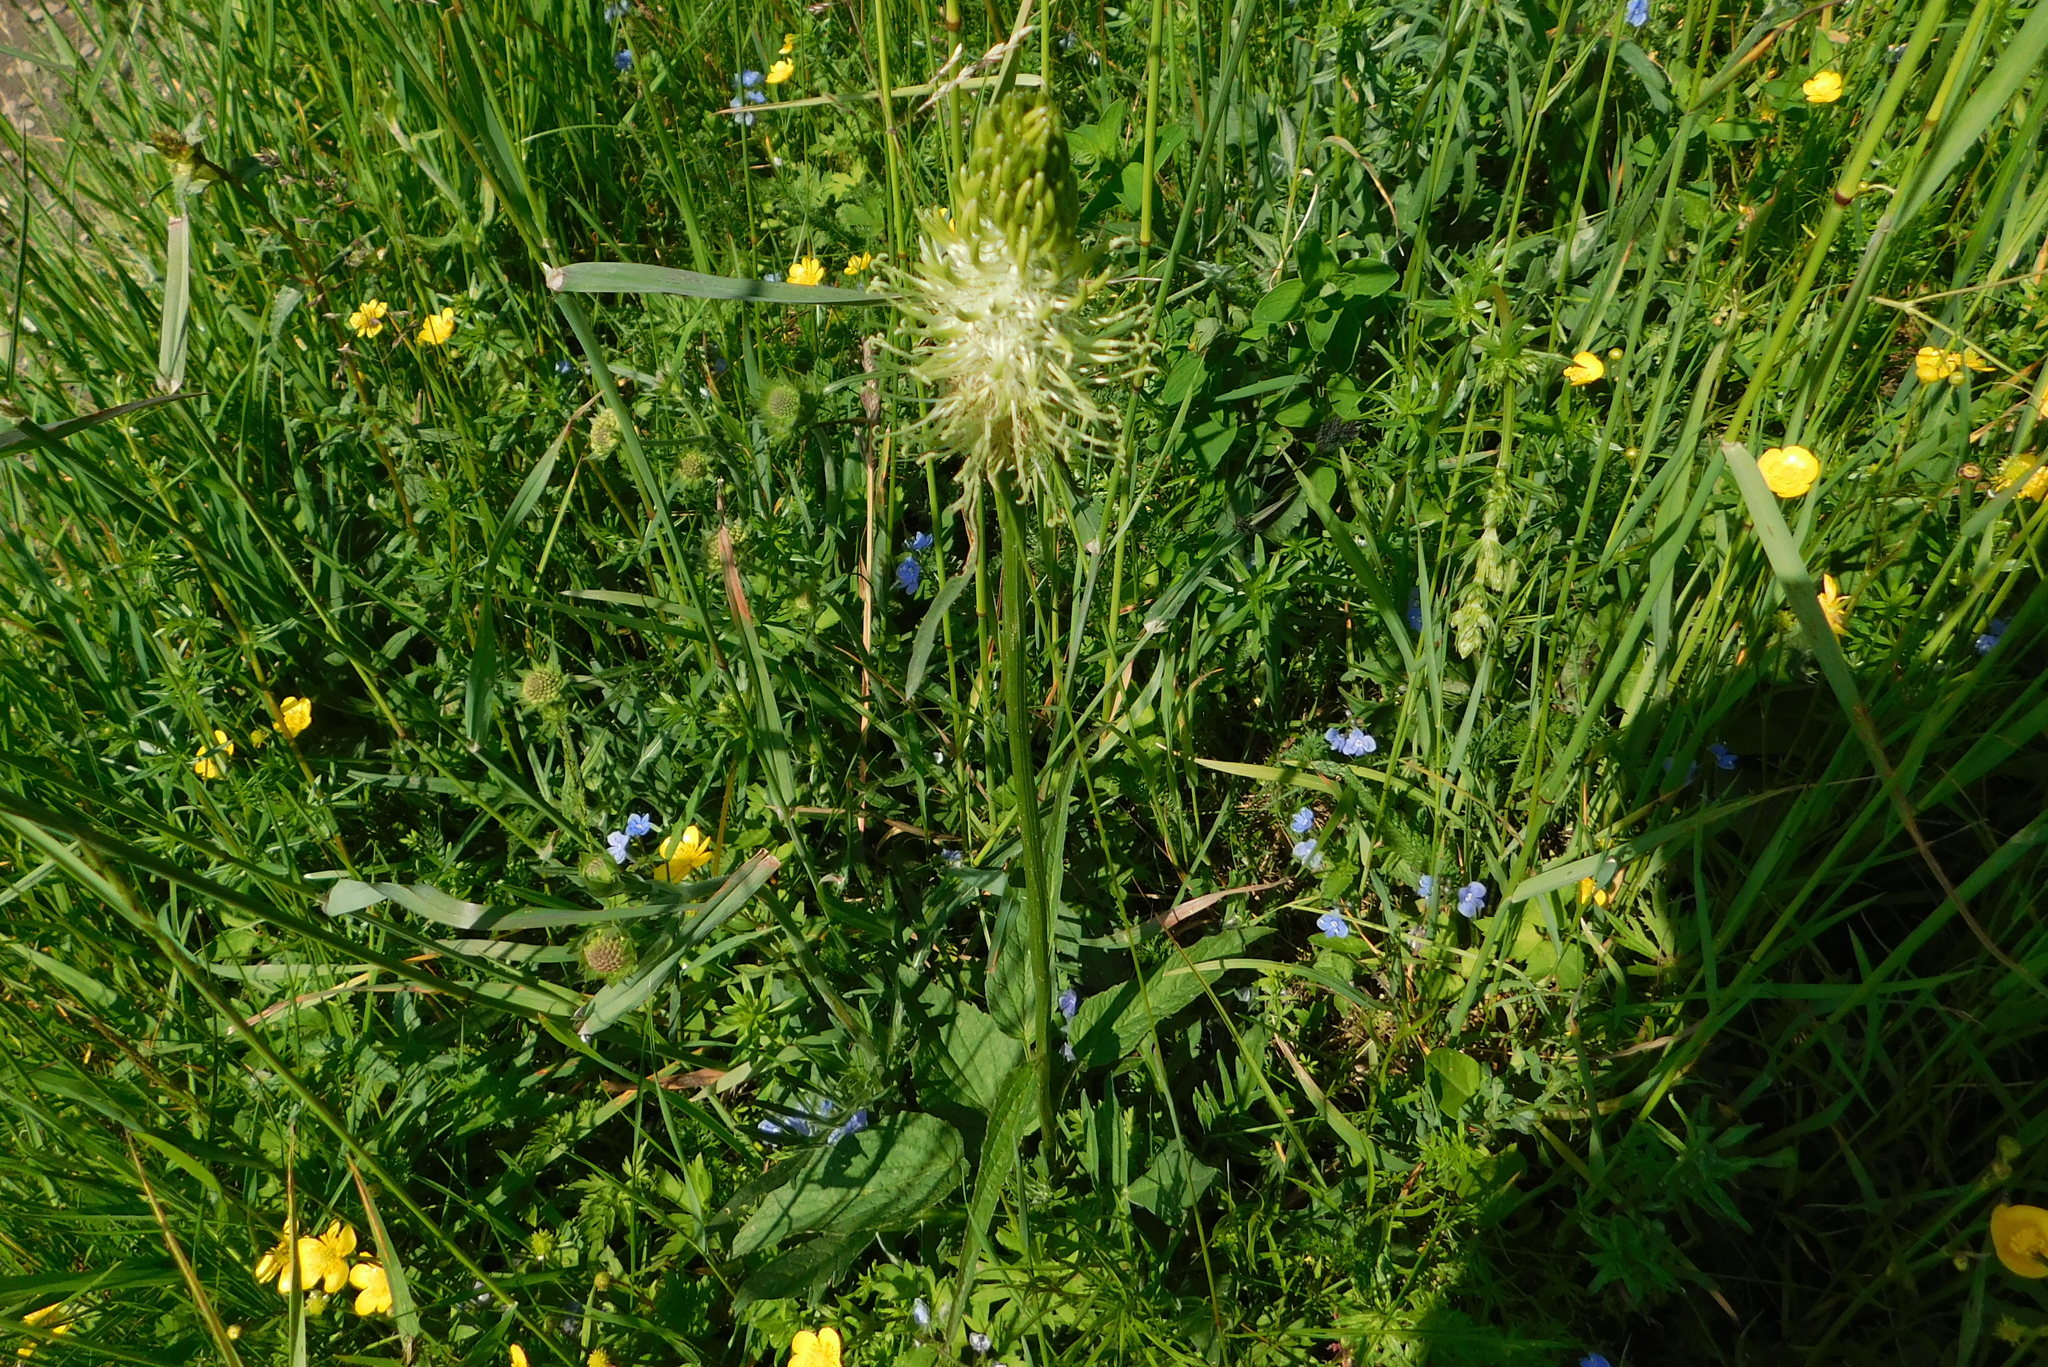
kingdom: Plantae
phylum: Tracheophyta
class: Magnoliopsida
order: Asterales
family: Campanulaceae
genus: Phyteuma
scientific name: Phyteuma spicatum
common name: Spiked rampion
